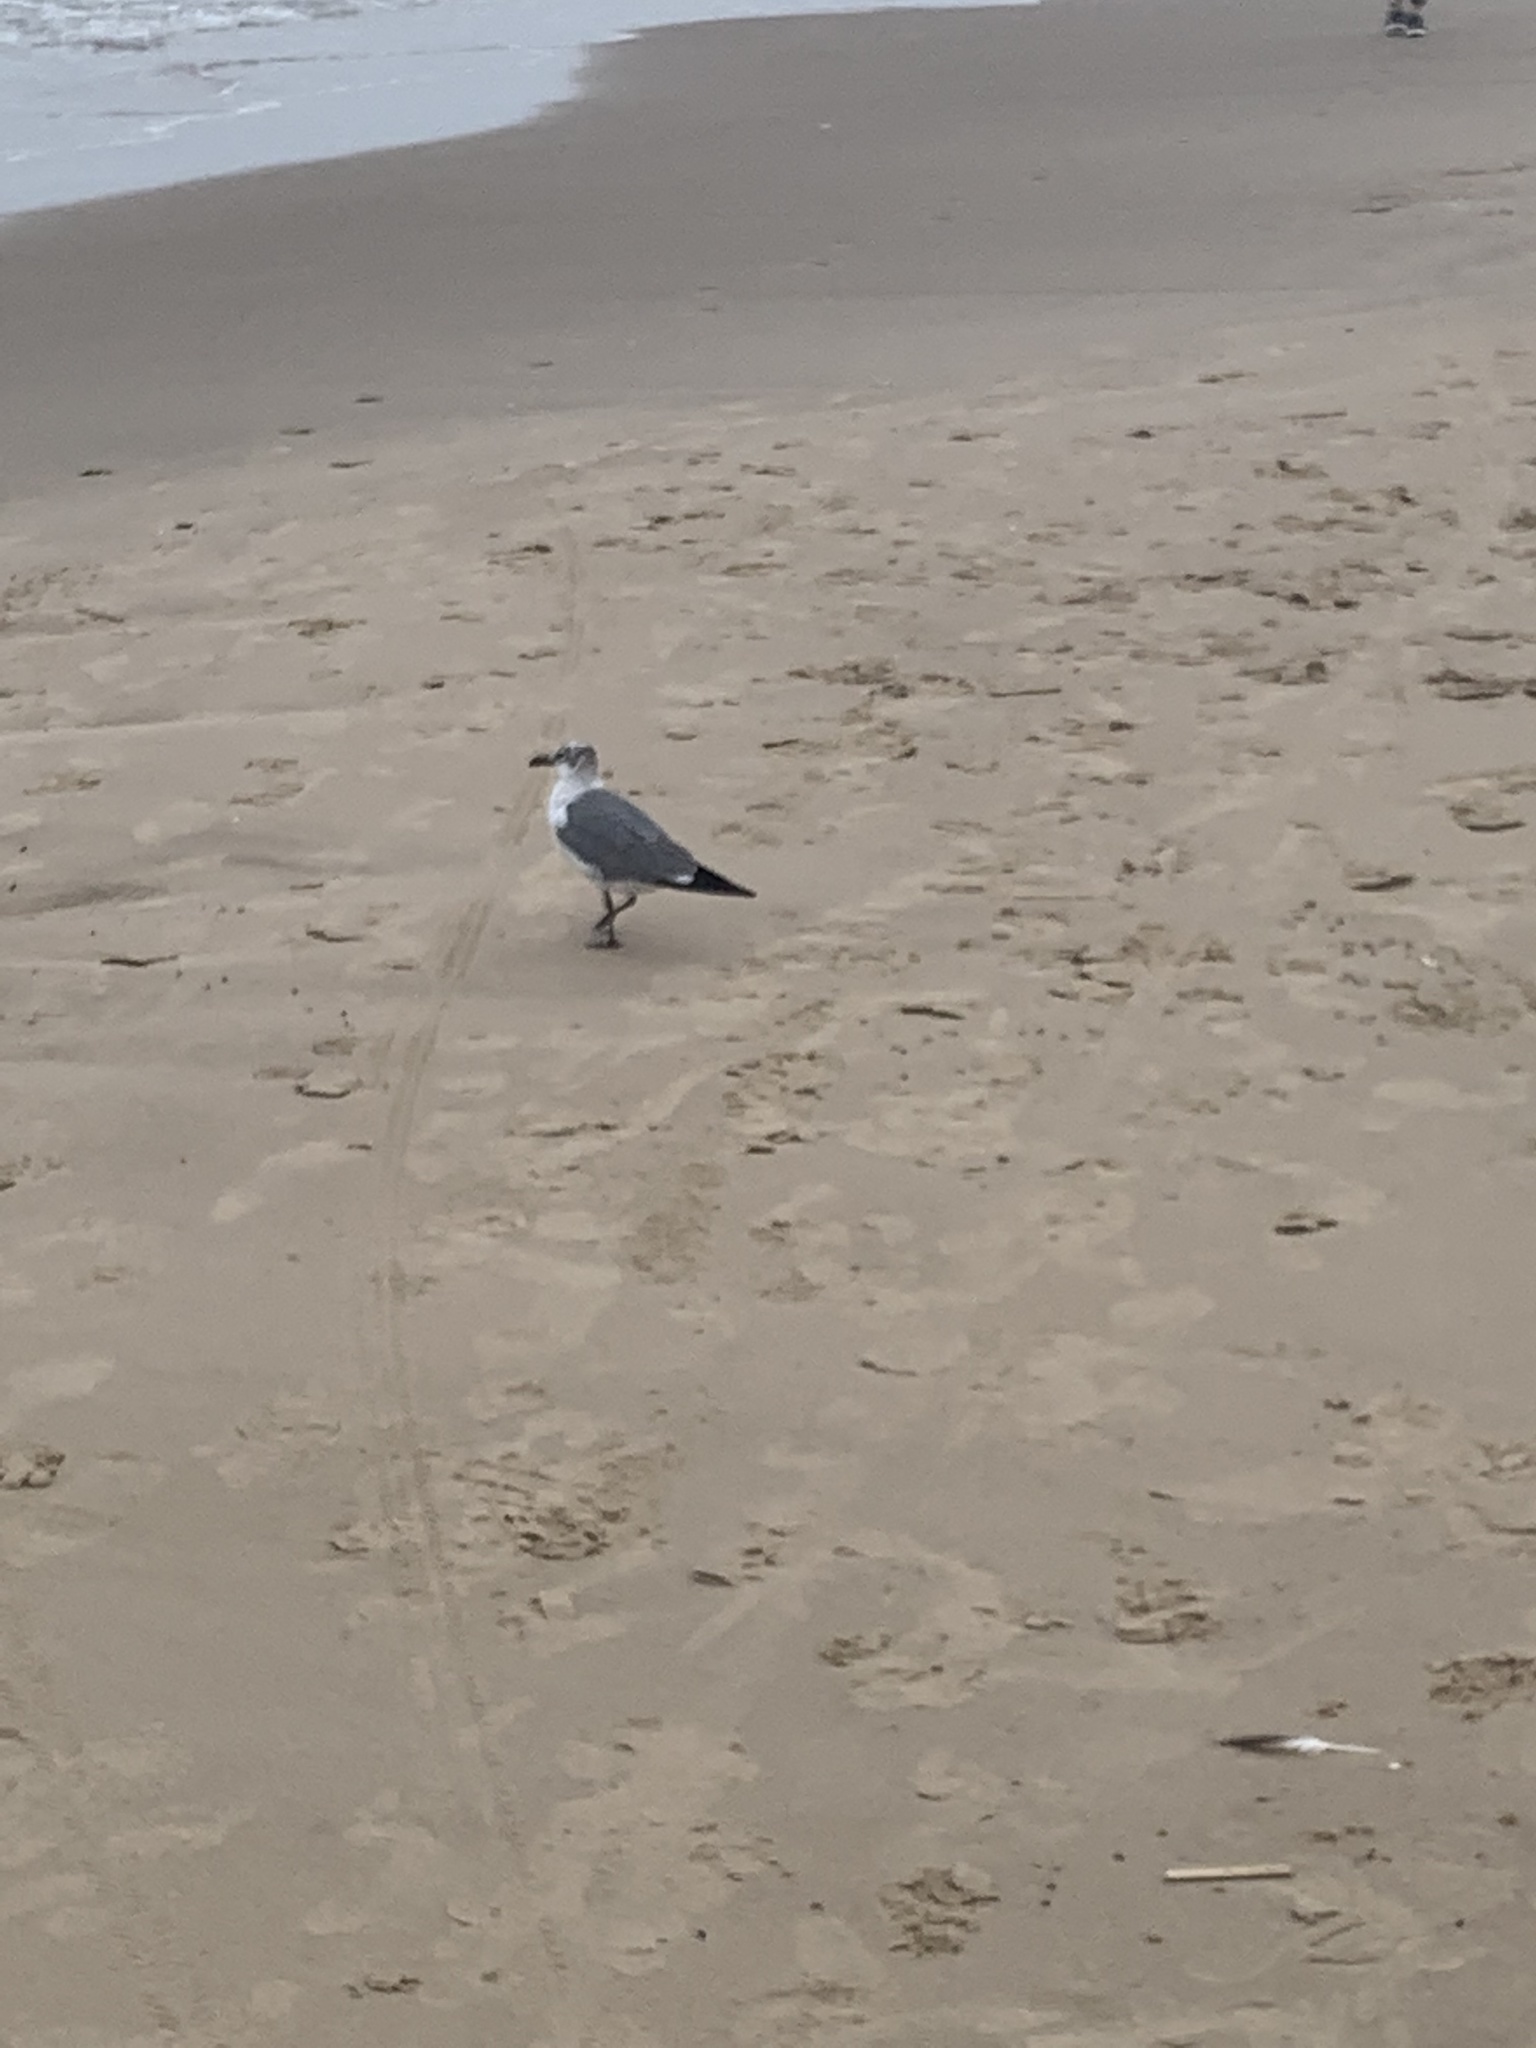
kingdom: Animalia
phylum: Chordata
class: Aves
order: Charadriiformes
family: Laridae
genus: Leucophaeus
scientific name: Leucophaeus atricilla
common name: Laughing gull
